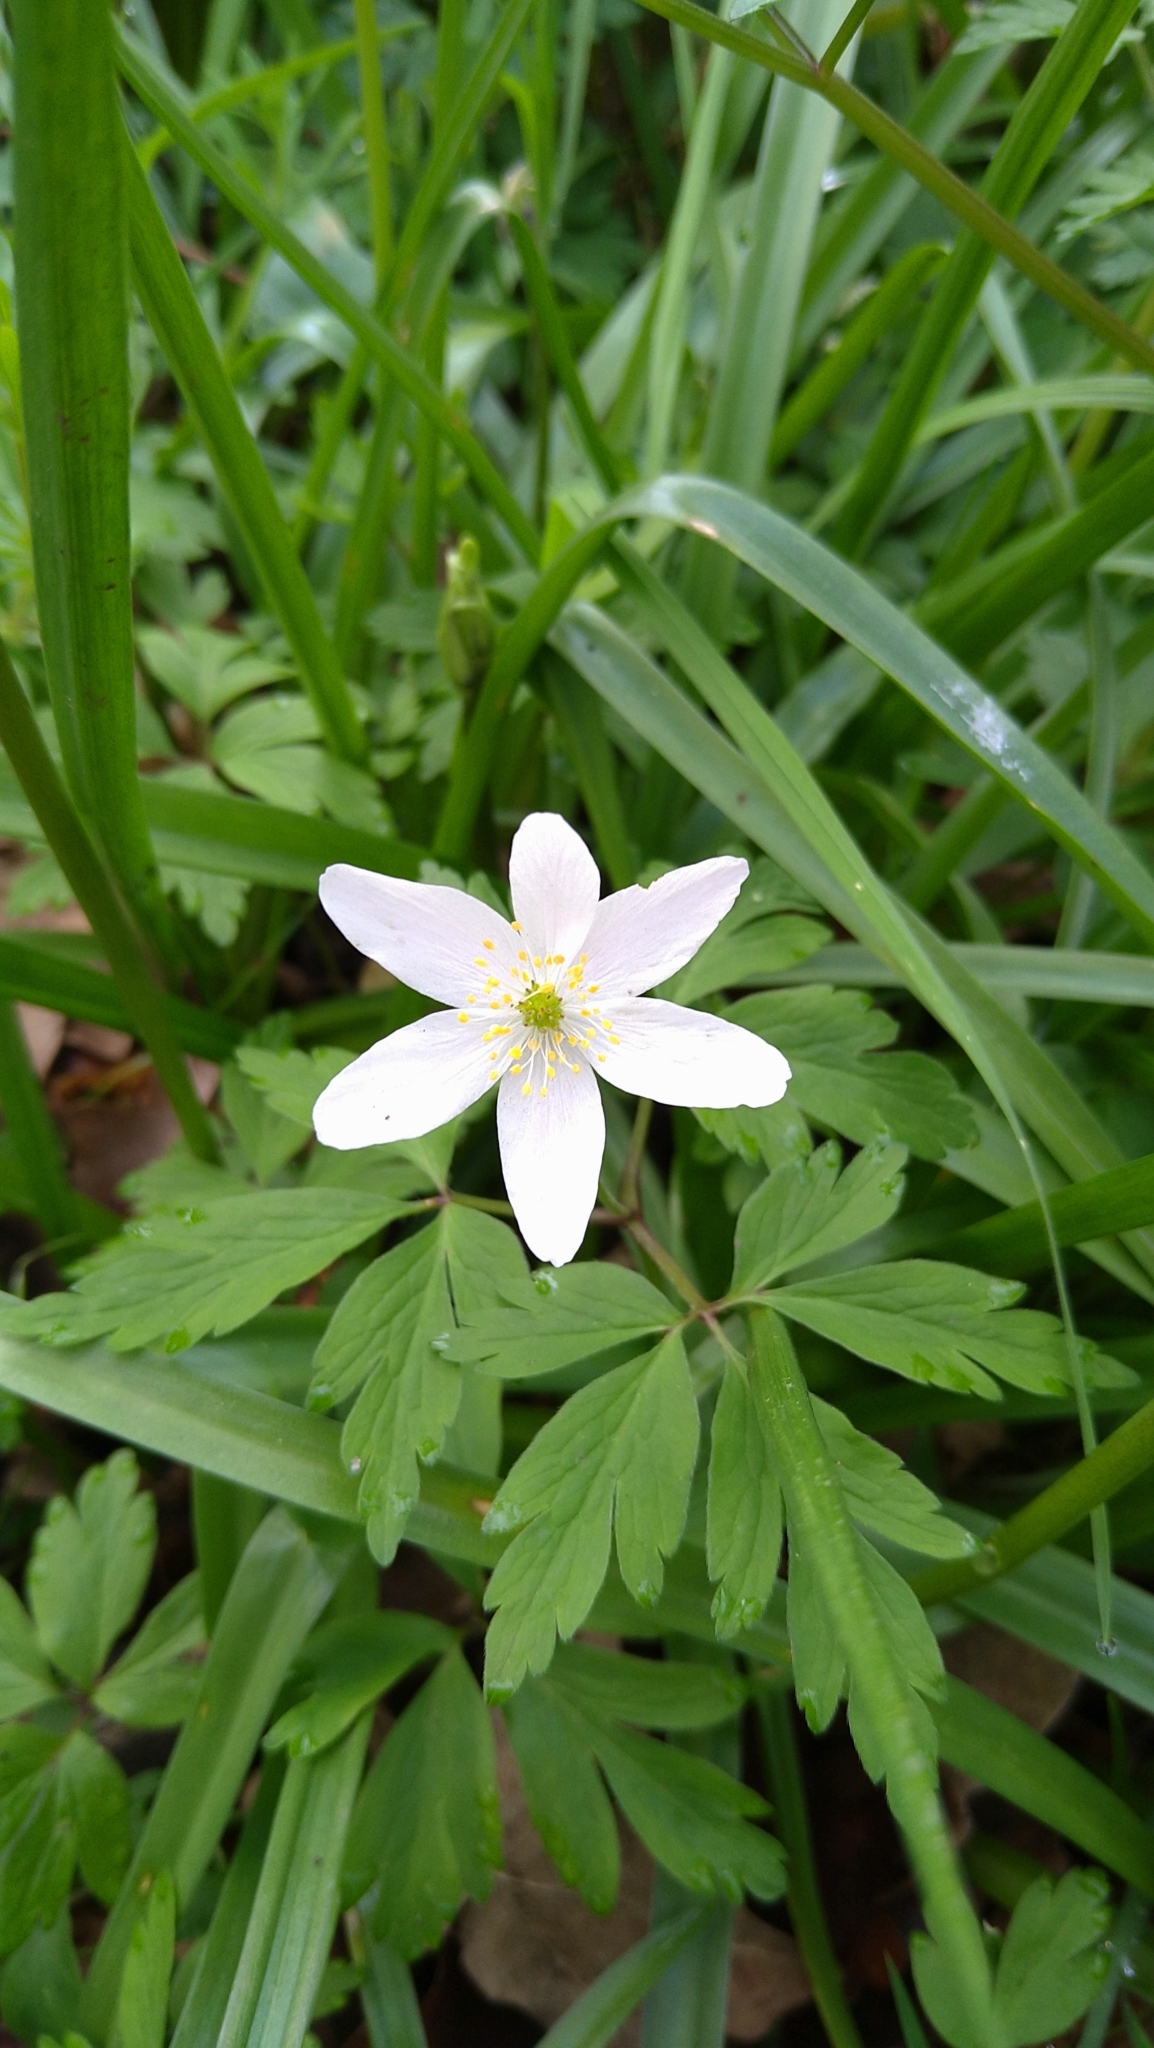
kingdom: Plantae
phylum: Tracheophyta
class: Magnoliopsida
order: Ranunculales
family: Ranunculaceae
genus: Anemone
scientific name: Anemone nemorosa
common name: Wood anemone
